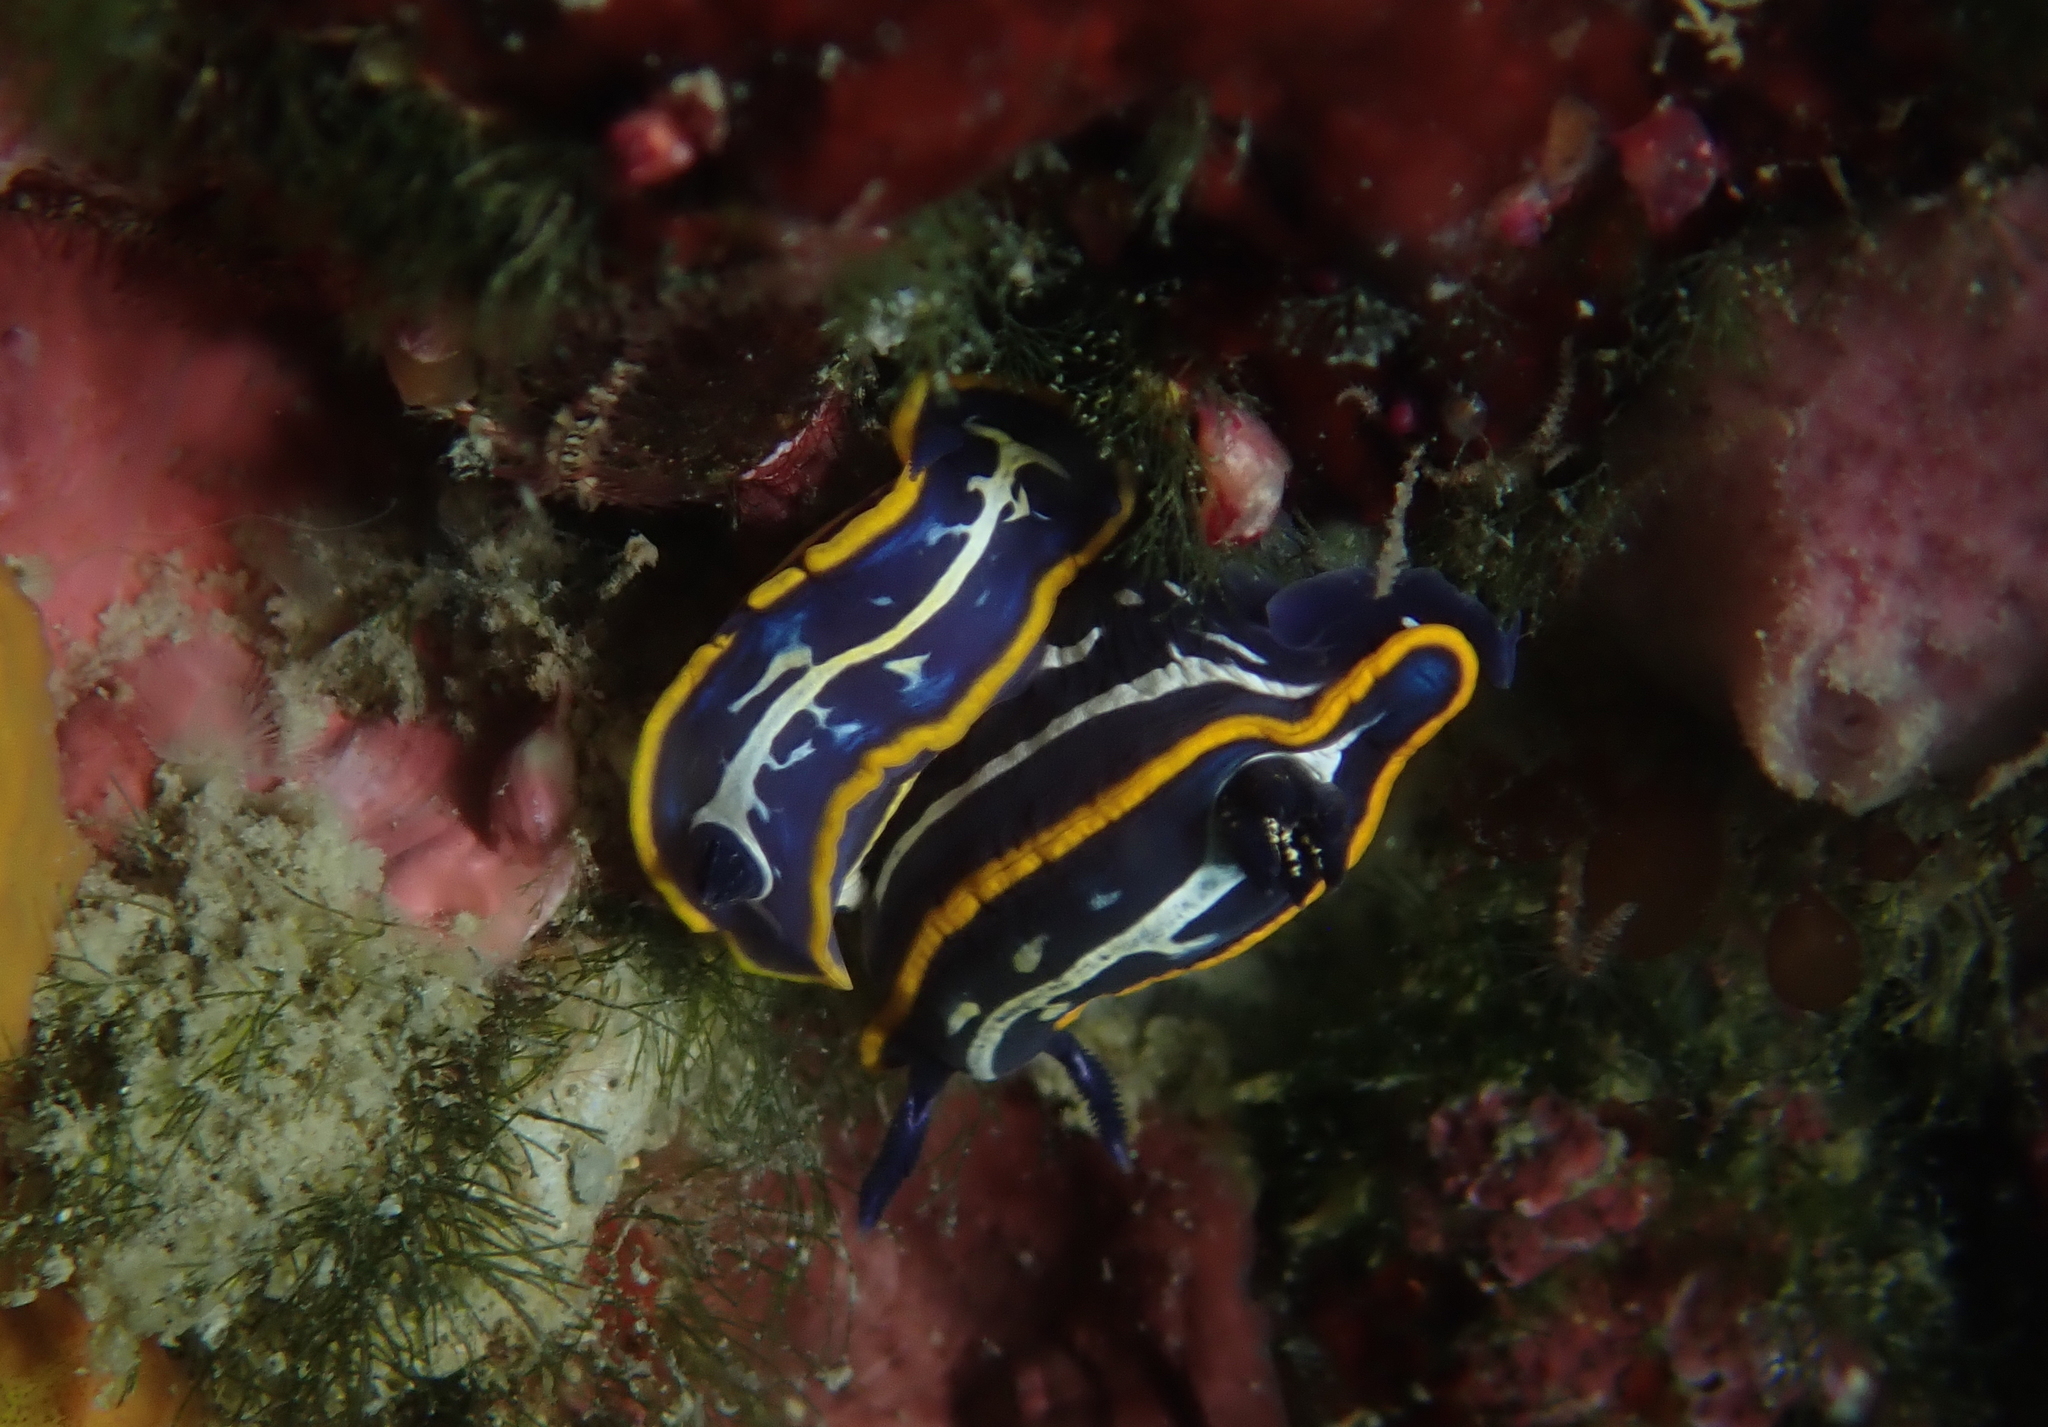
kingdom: Animalia
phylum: Mollusca
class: Gastropoda
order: Nudibranchia
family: Chromodorididae
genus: Felimare
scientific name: Felimare fontandraui
